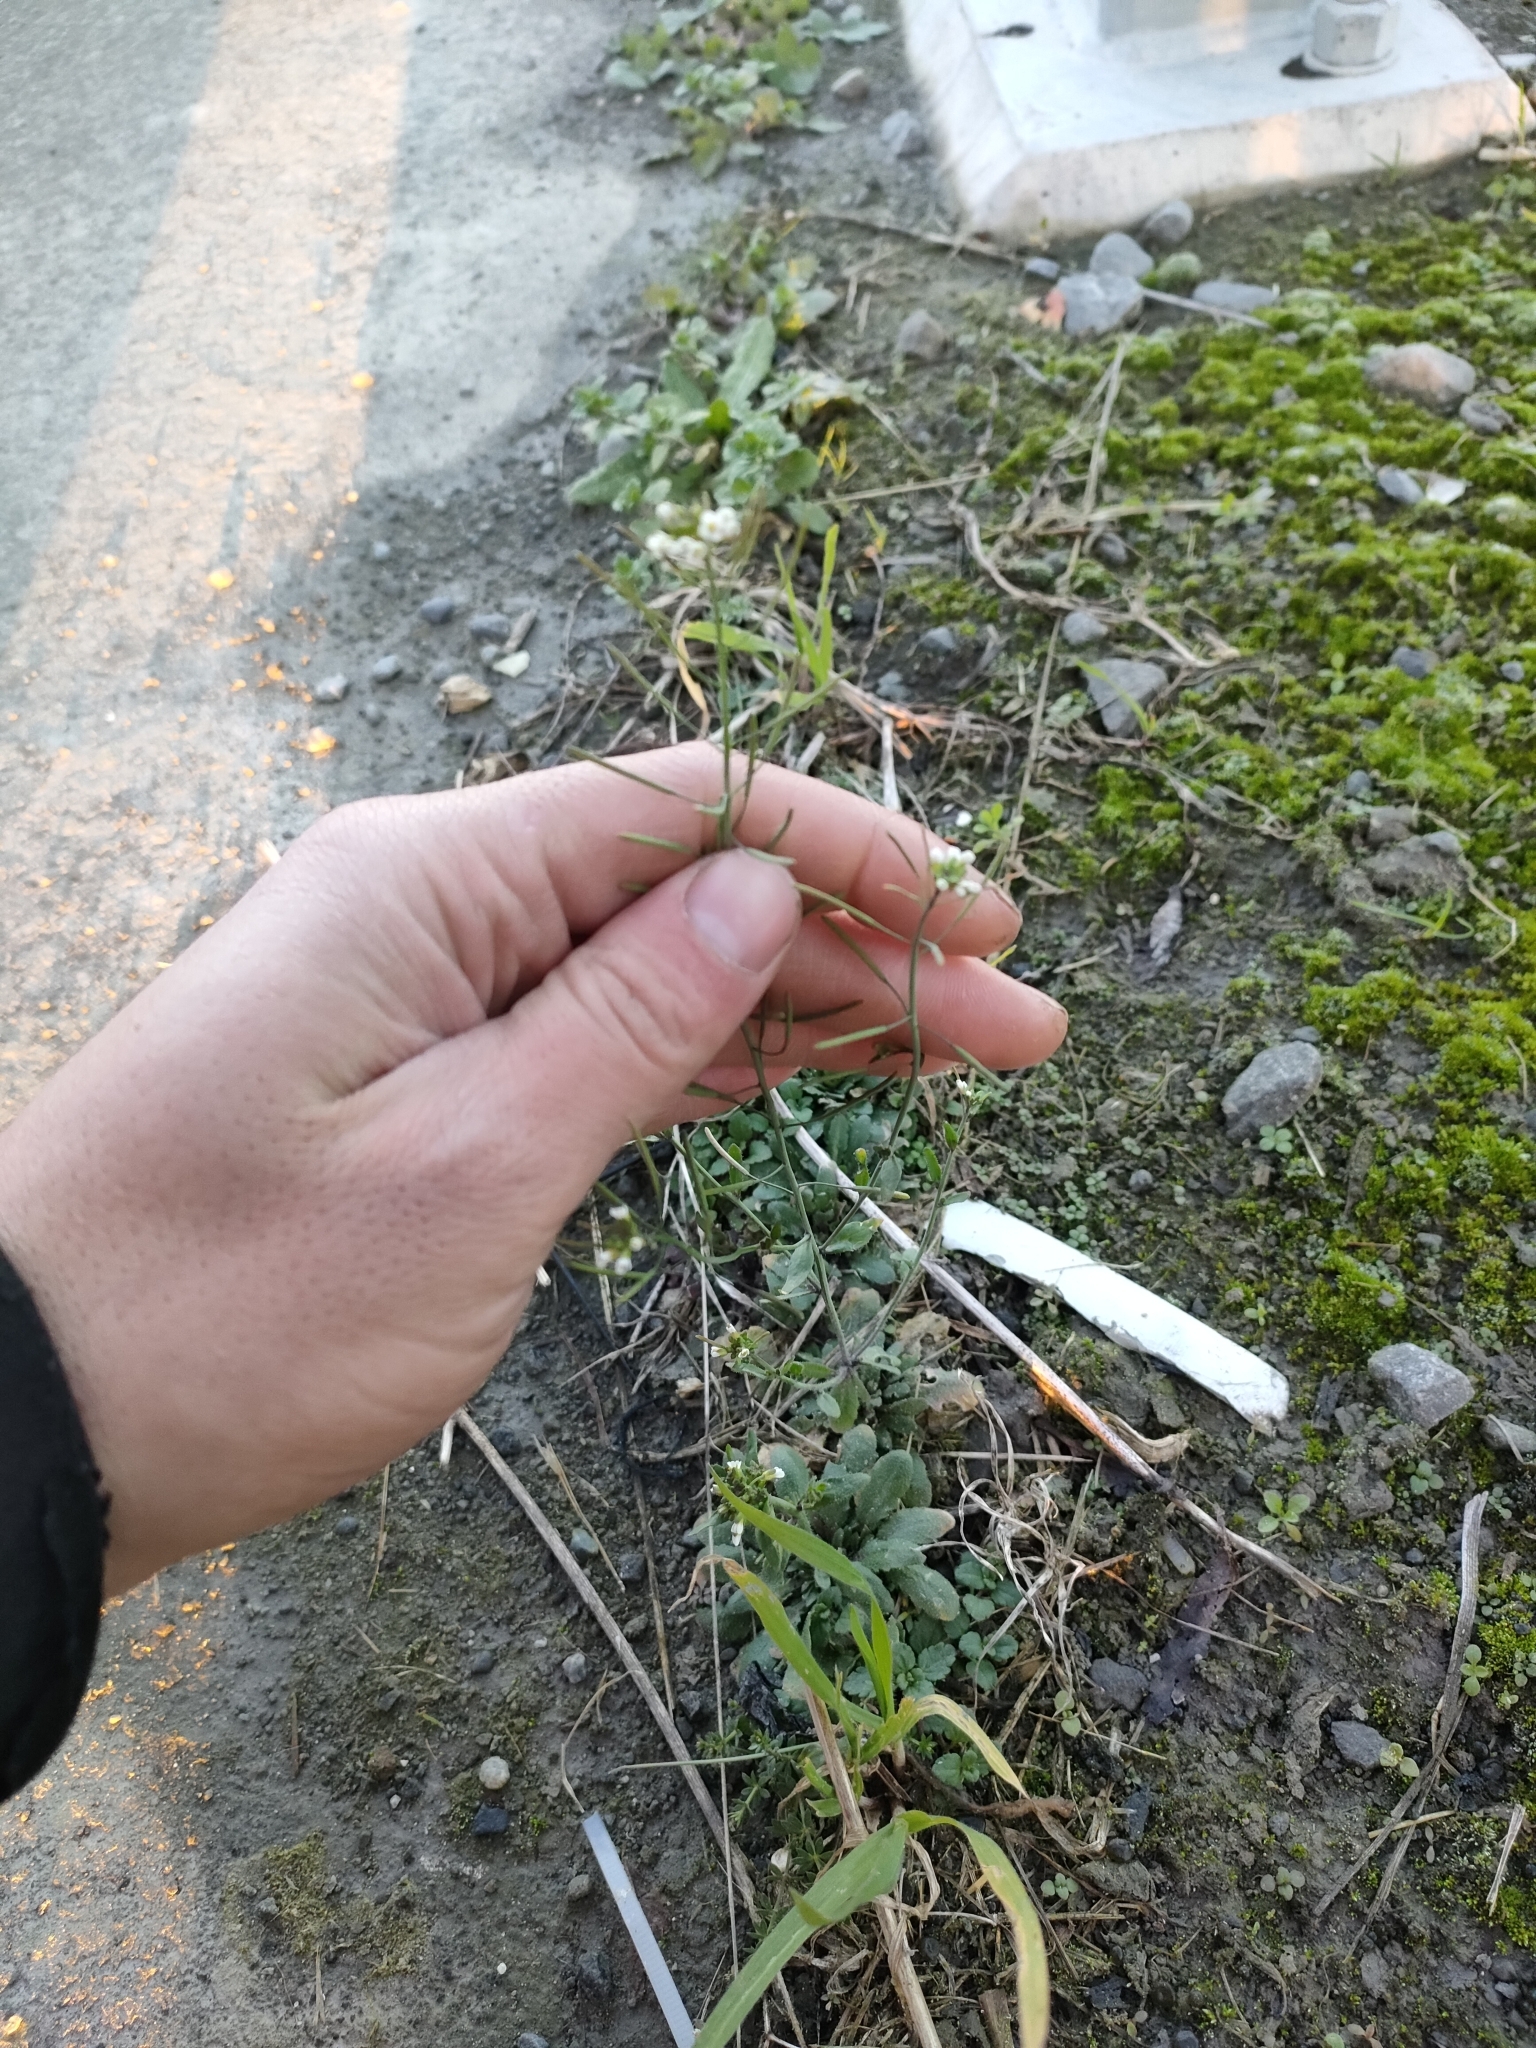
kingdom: Plantae
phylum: Tracheophyta
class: Magnoliopsida
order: Brassicales
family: Brassicaceae
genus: Arabidopsis
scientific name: Arabidopsis thaliana
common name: Thale cress
